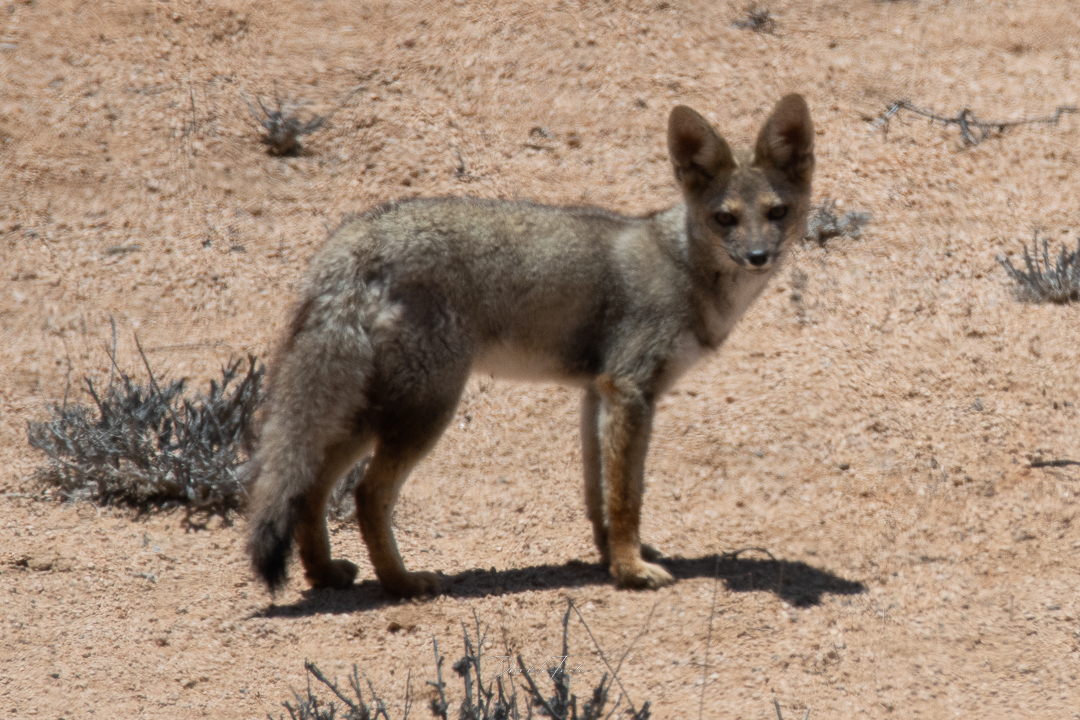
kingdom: Animalia
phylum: Chordata
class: Mammalia
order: Carnivora
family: Canidae
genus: Lycalopex
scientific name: Lycalopex gymnocercus
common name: Pampas fox
